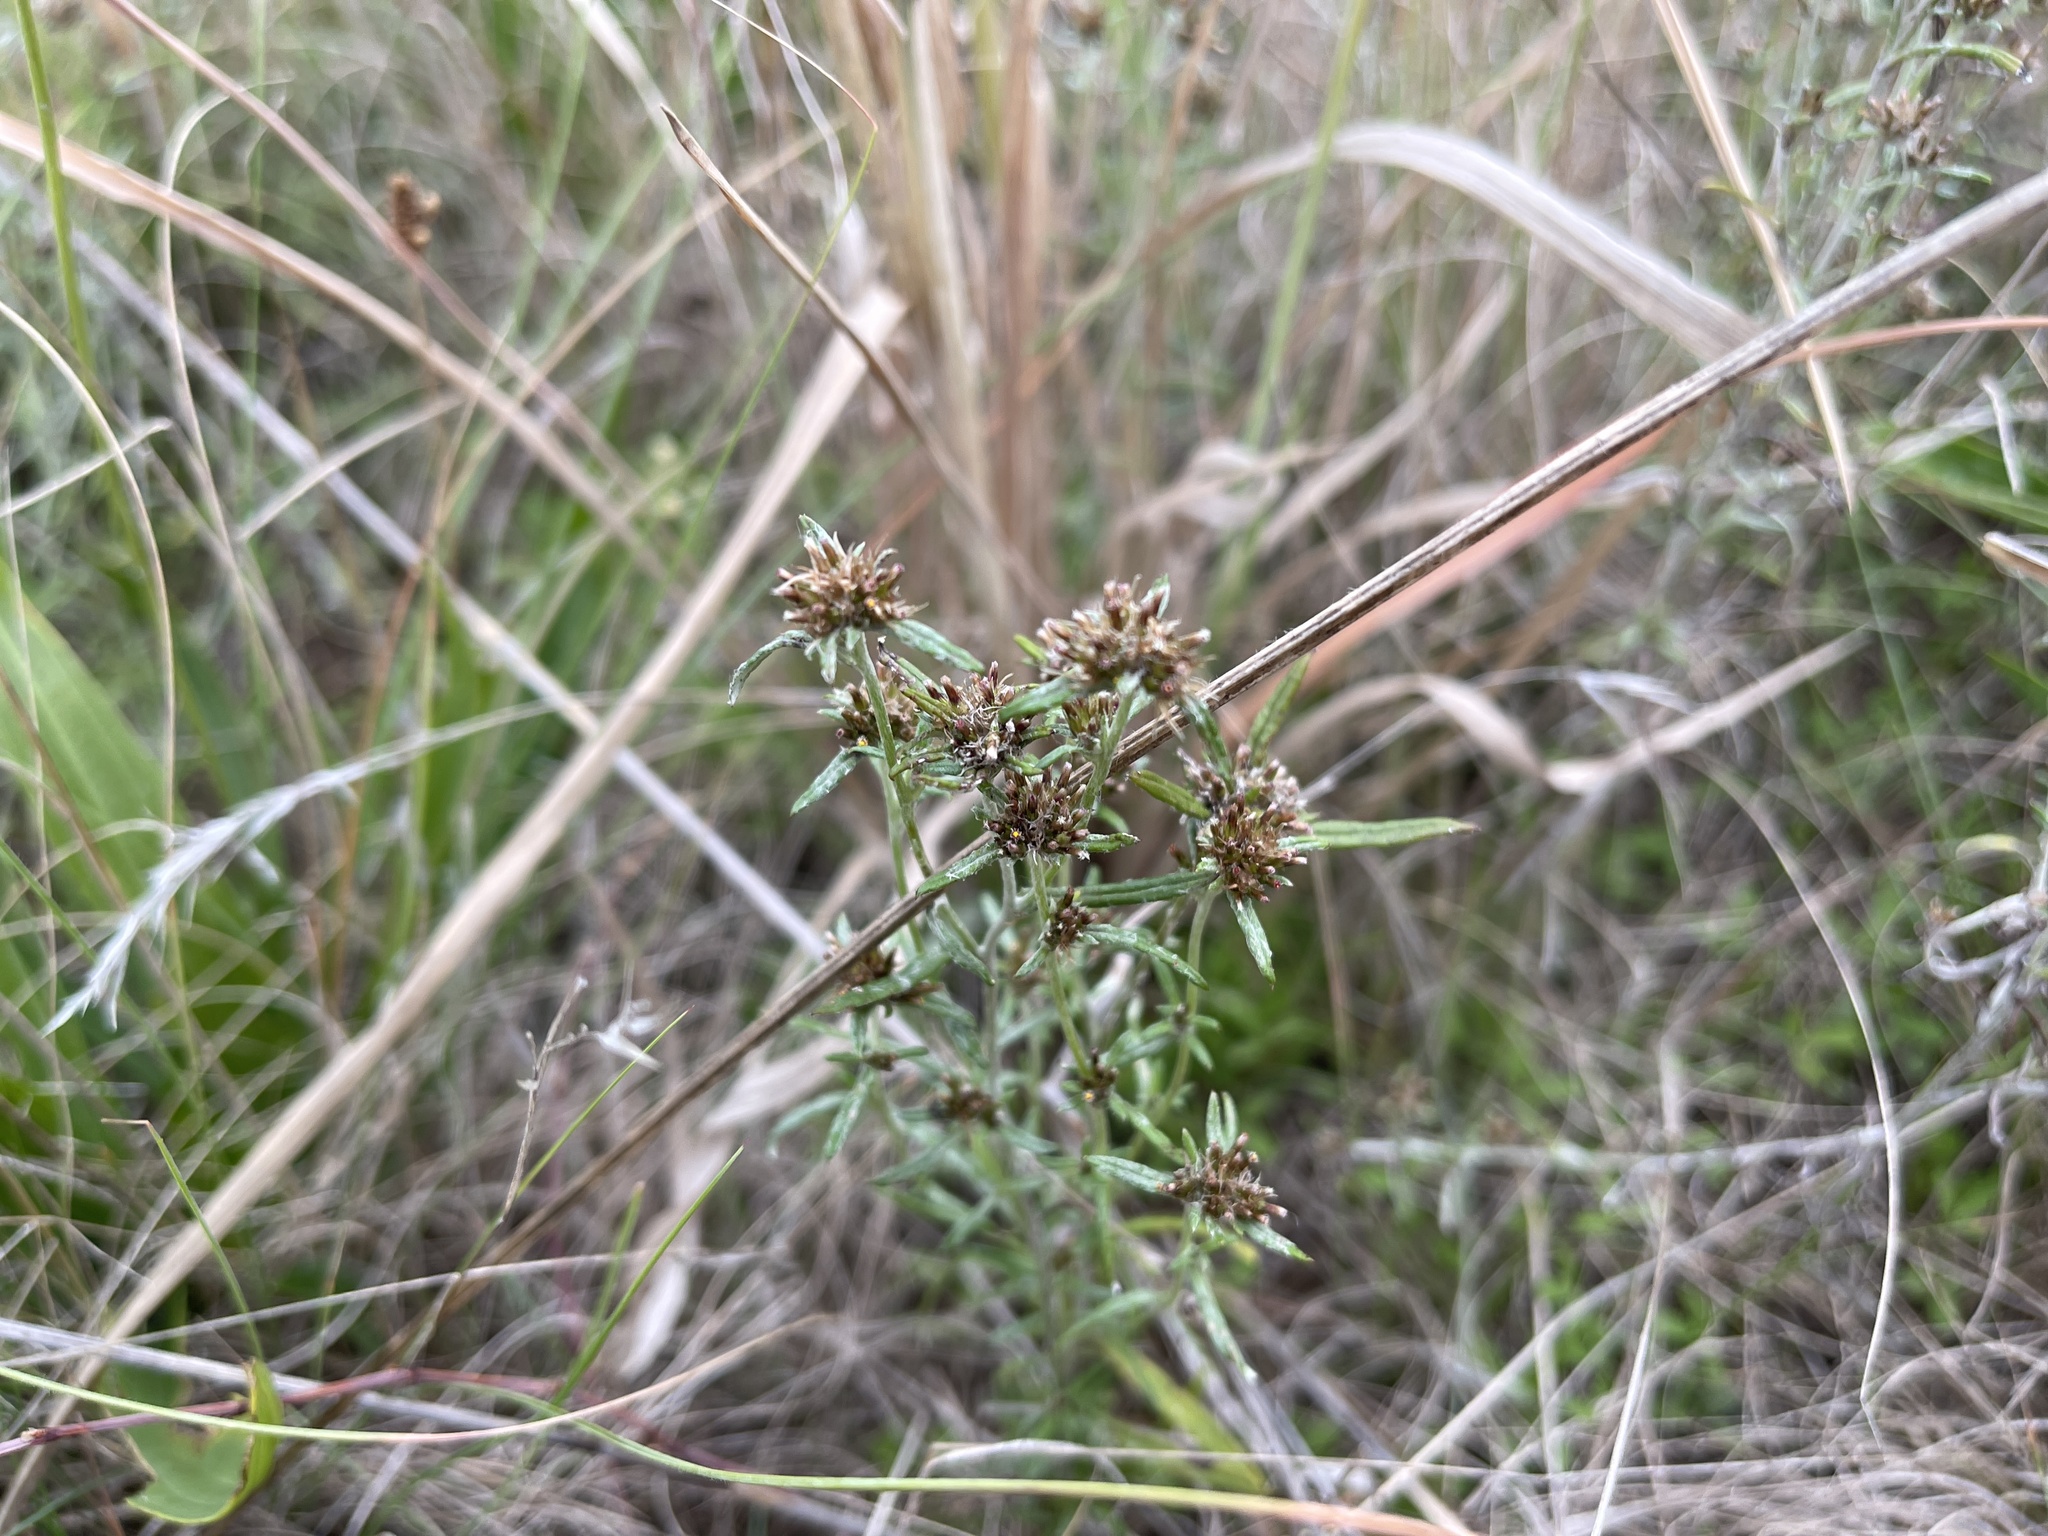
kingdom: Plantae
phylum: Tracheophyta
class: Magnoliopsida
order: Asterales
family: Asteraceae
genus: Euchiton
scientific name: Euchiton sphaericus
